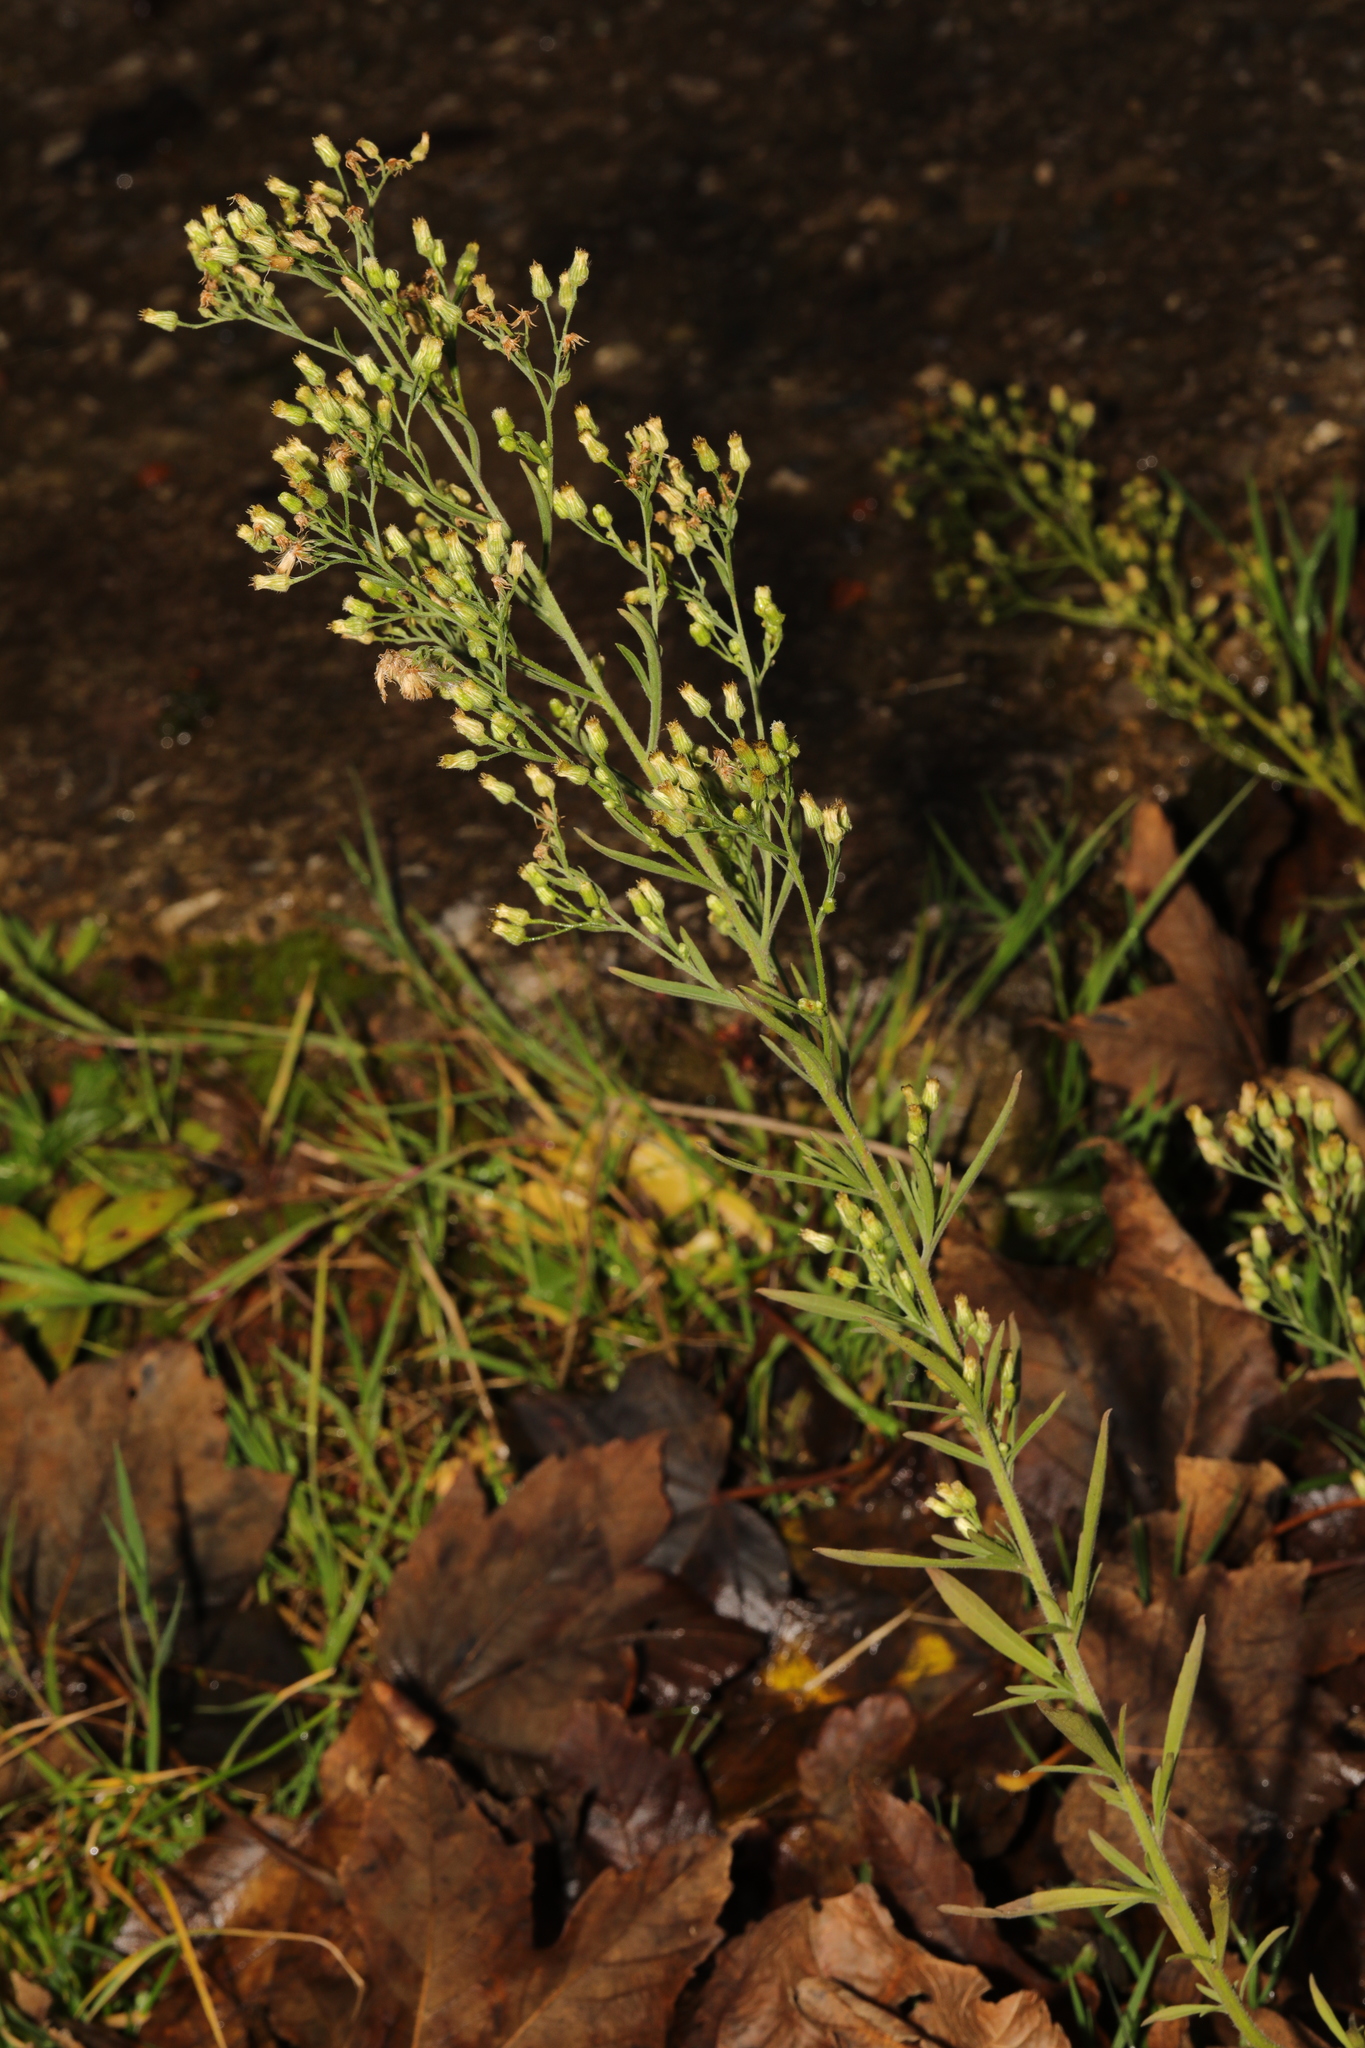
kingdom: Plantae
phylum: Tracheophyta
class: Magnoliopsida
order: Asterales
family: Asteraceae
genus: Erigeron
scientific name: Erigeron canadensis
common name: Canadian fleabane
